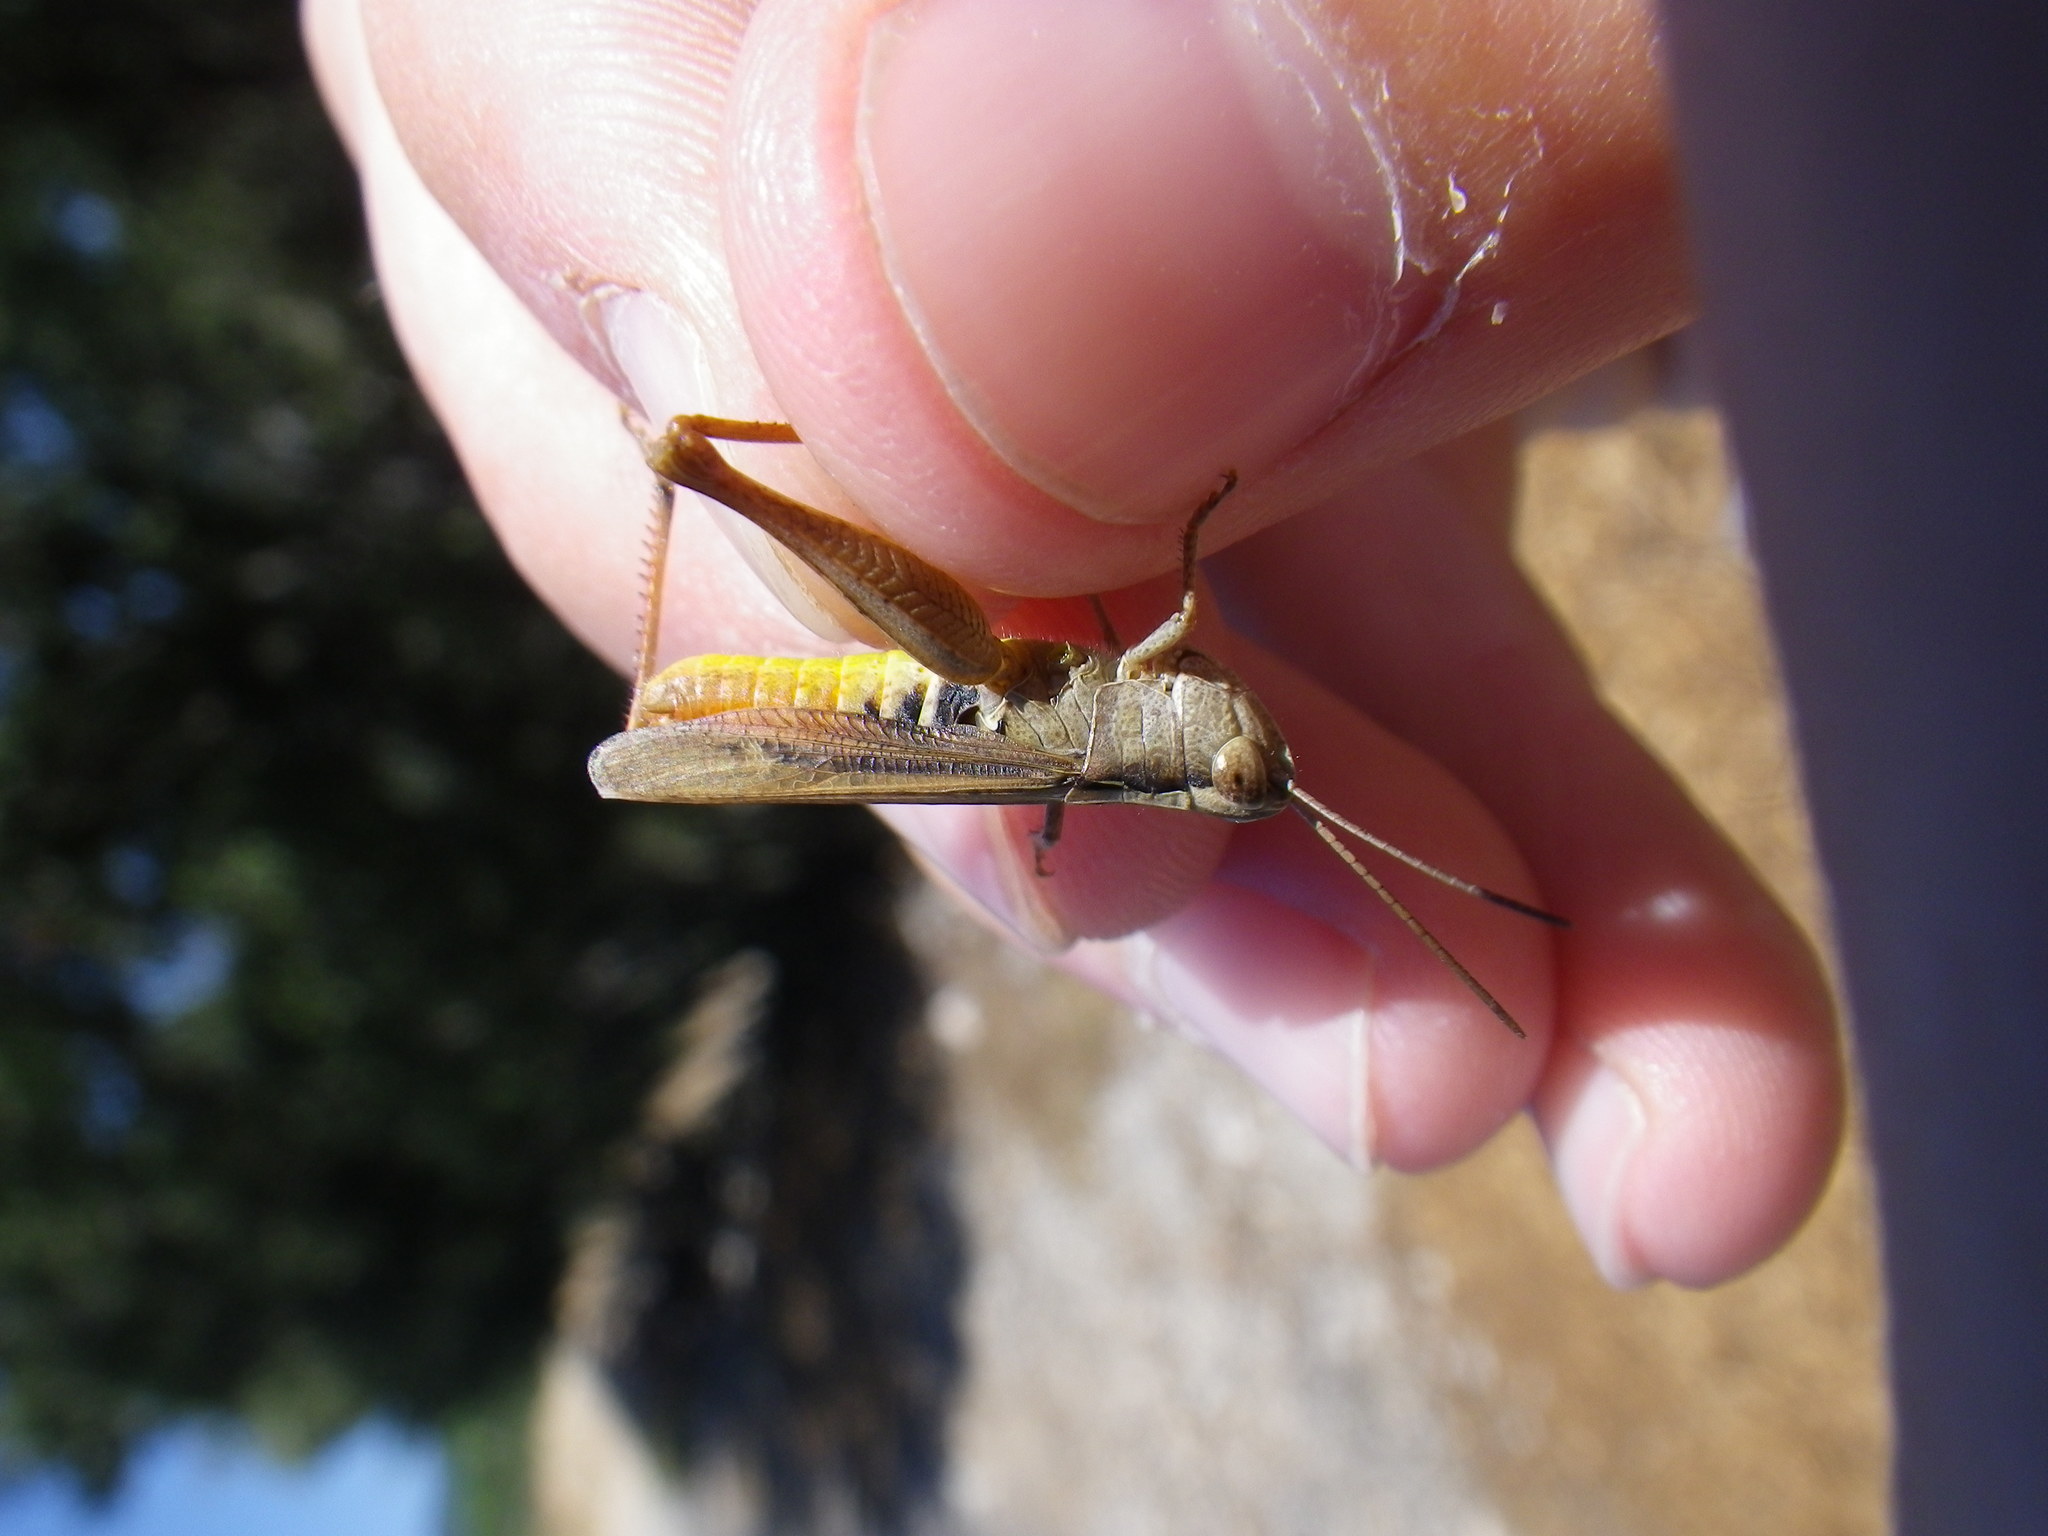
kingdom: Animalia
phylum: Arthropoda
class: Insecta
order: Orthoptera
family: Acrididae
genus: Chorthippus
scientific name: Chorthippus vagans
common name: Heath grasshopper
